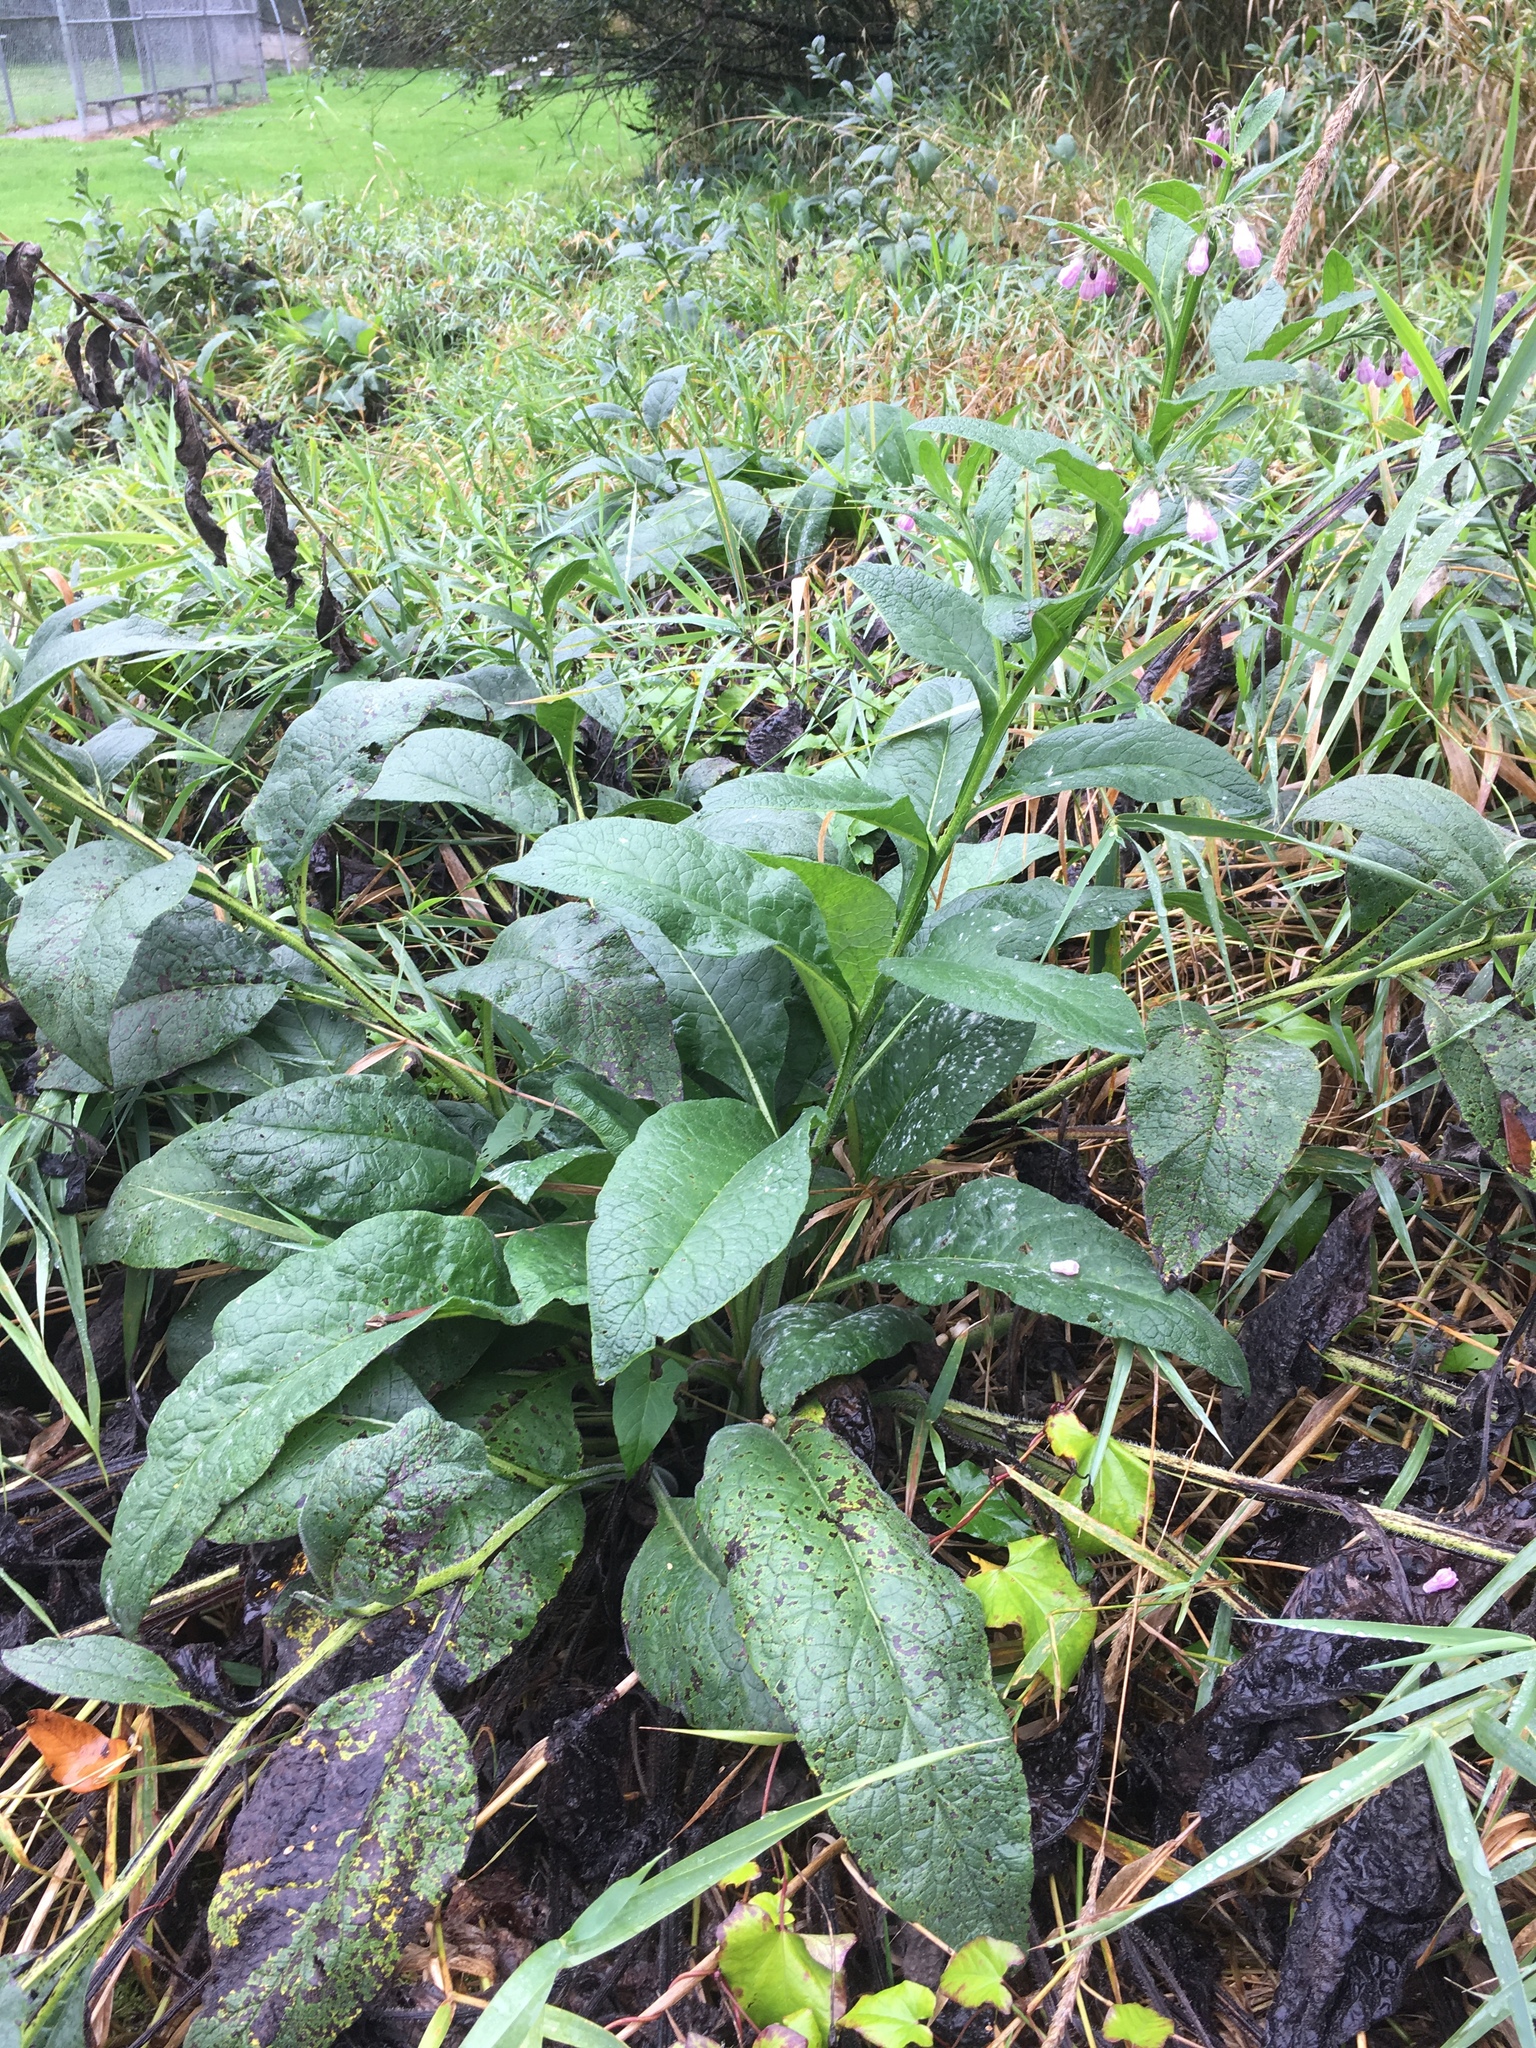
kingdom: Plantae
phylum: Tracheophyta
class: Magnoliopsida
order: Boraginales
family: Boraginaceae
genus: Symphytum
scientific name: Symphytum officinale
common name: Common comfrey
